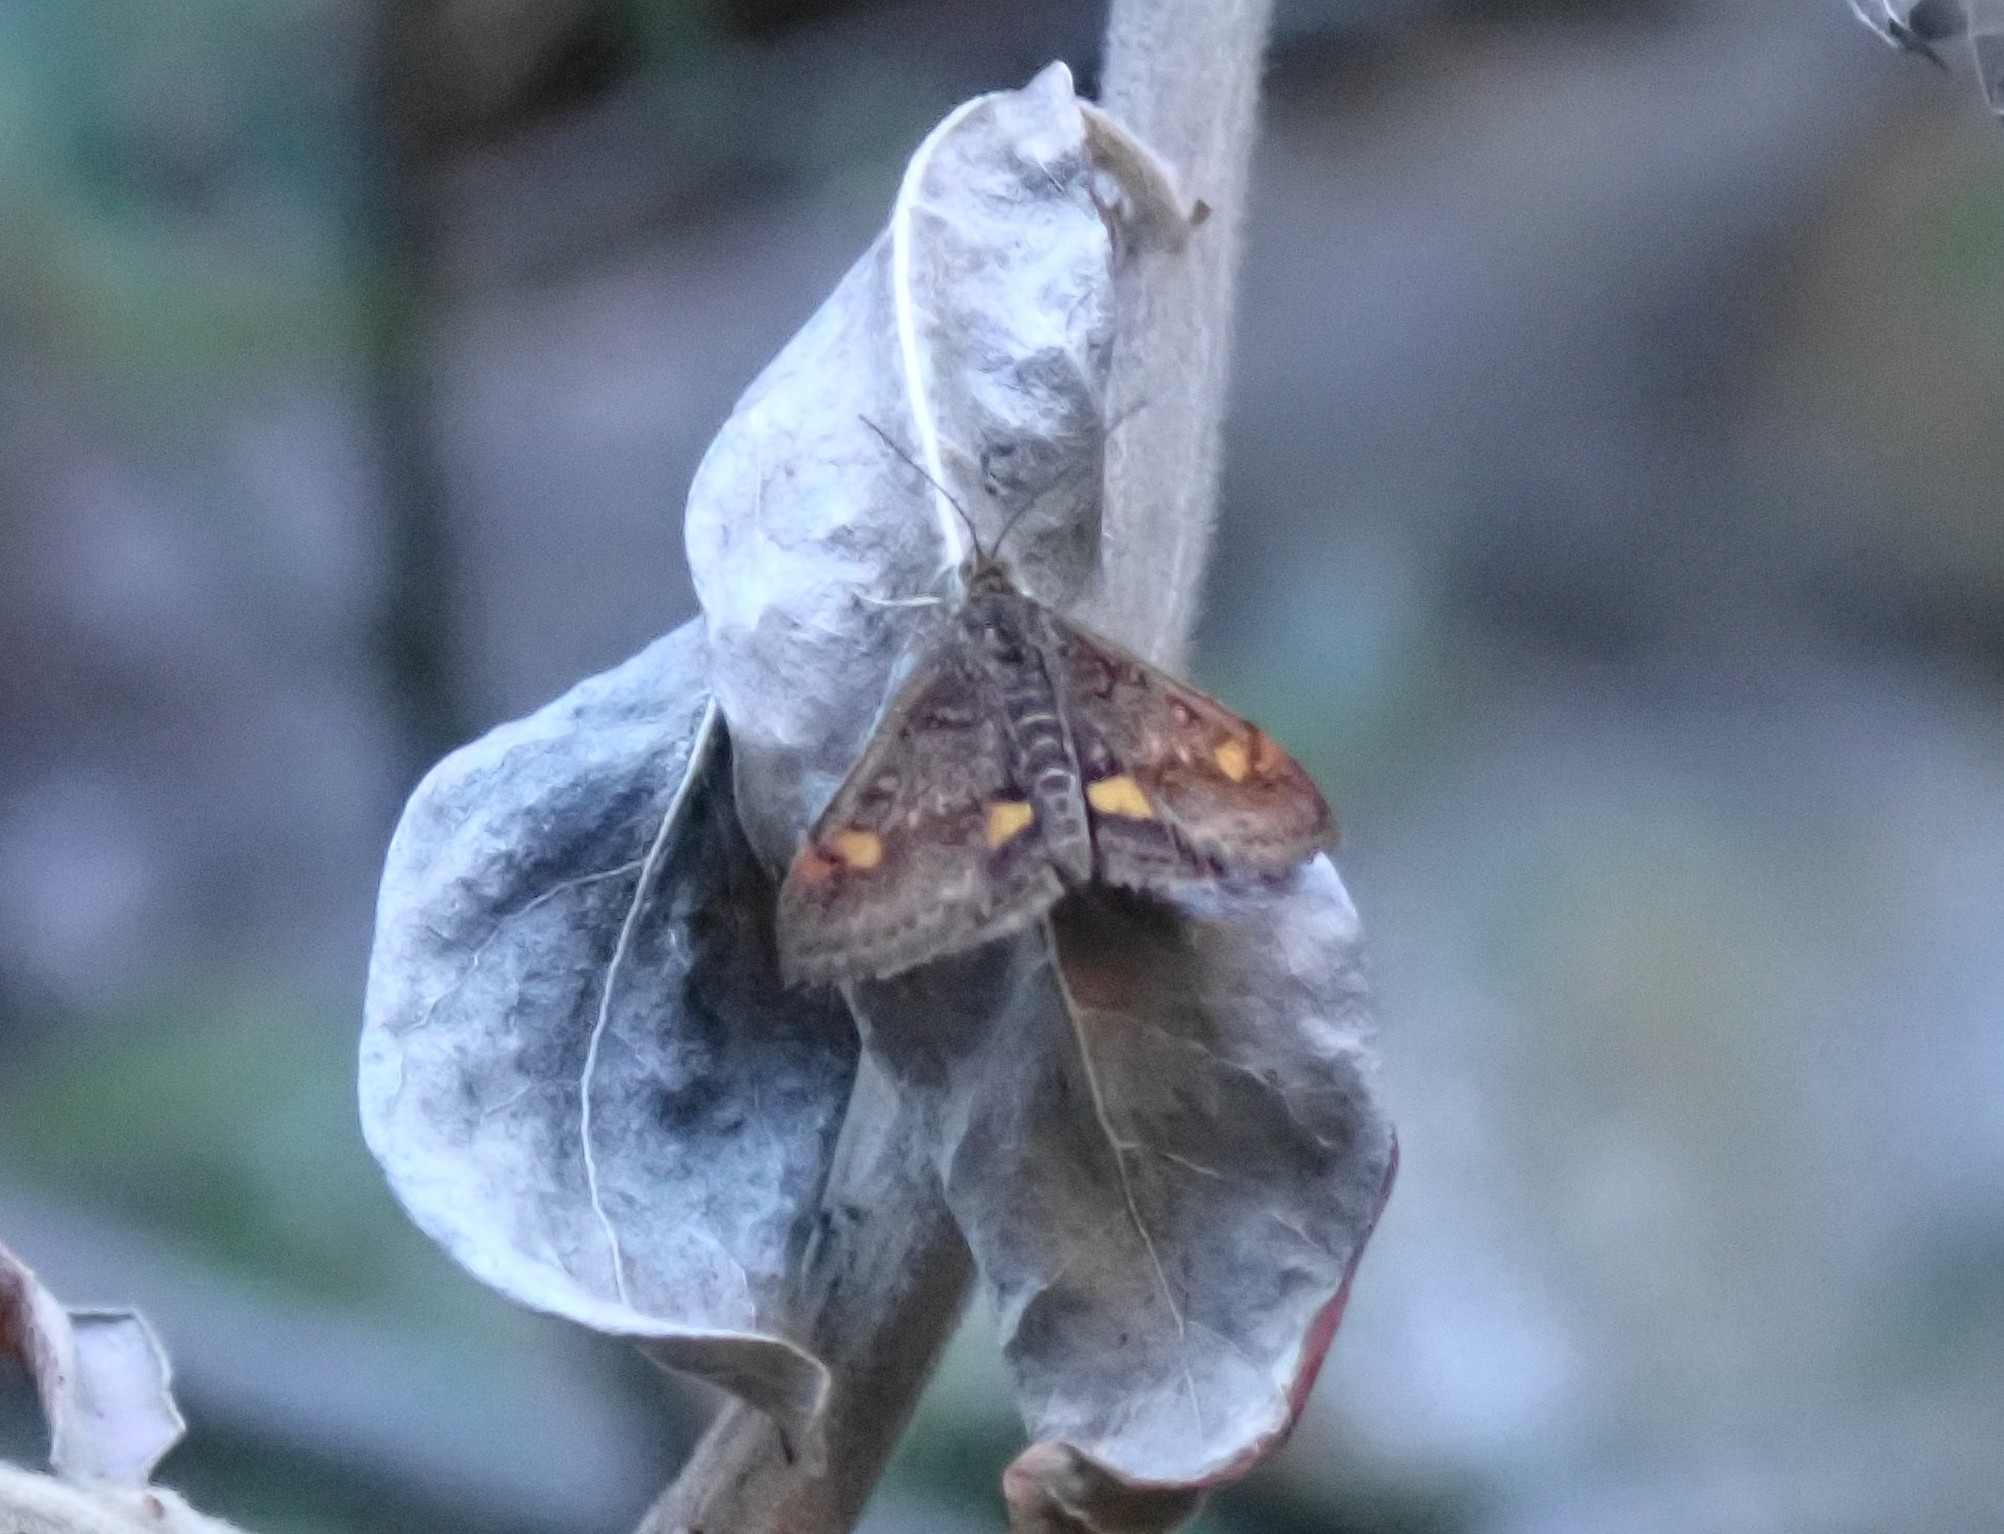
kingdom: Animalia
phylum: Arthropoda
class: Insecta
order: Lepidoptera
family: Crambidae
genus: Pyrausta
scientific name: Pyrausta aurata
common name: Small purple & gold
